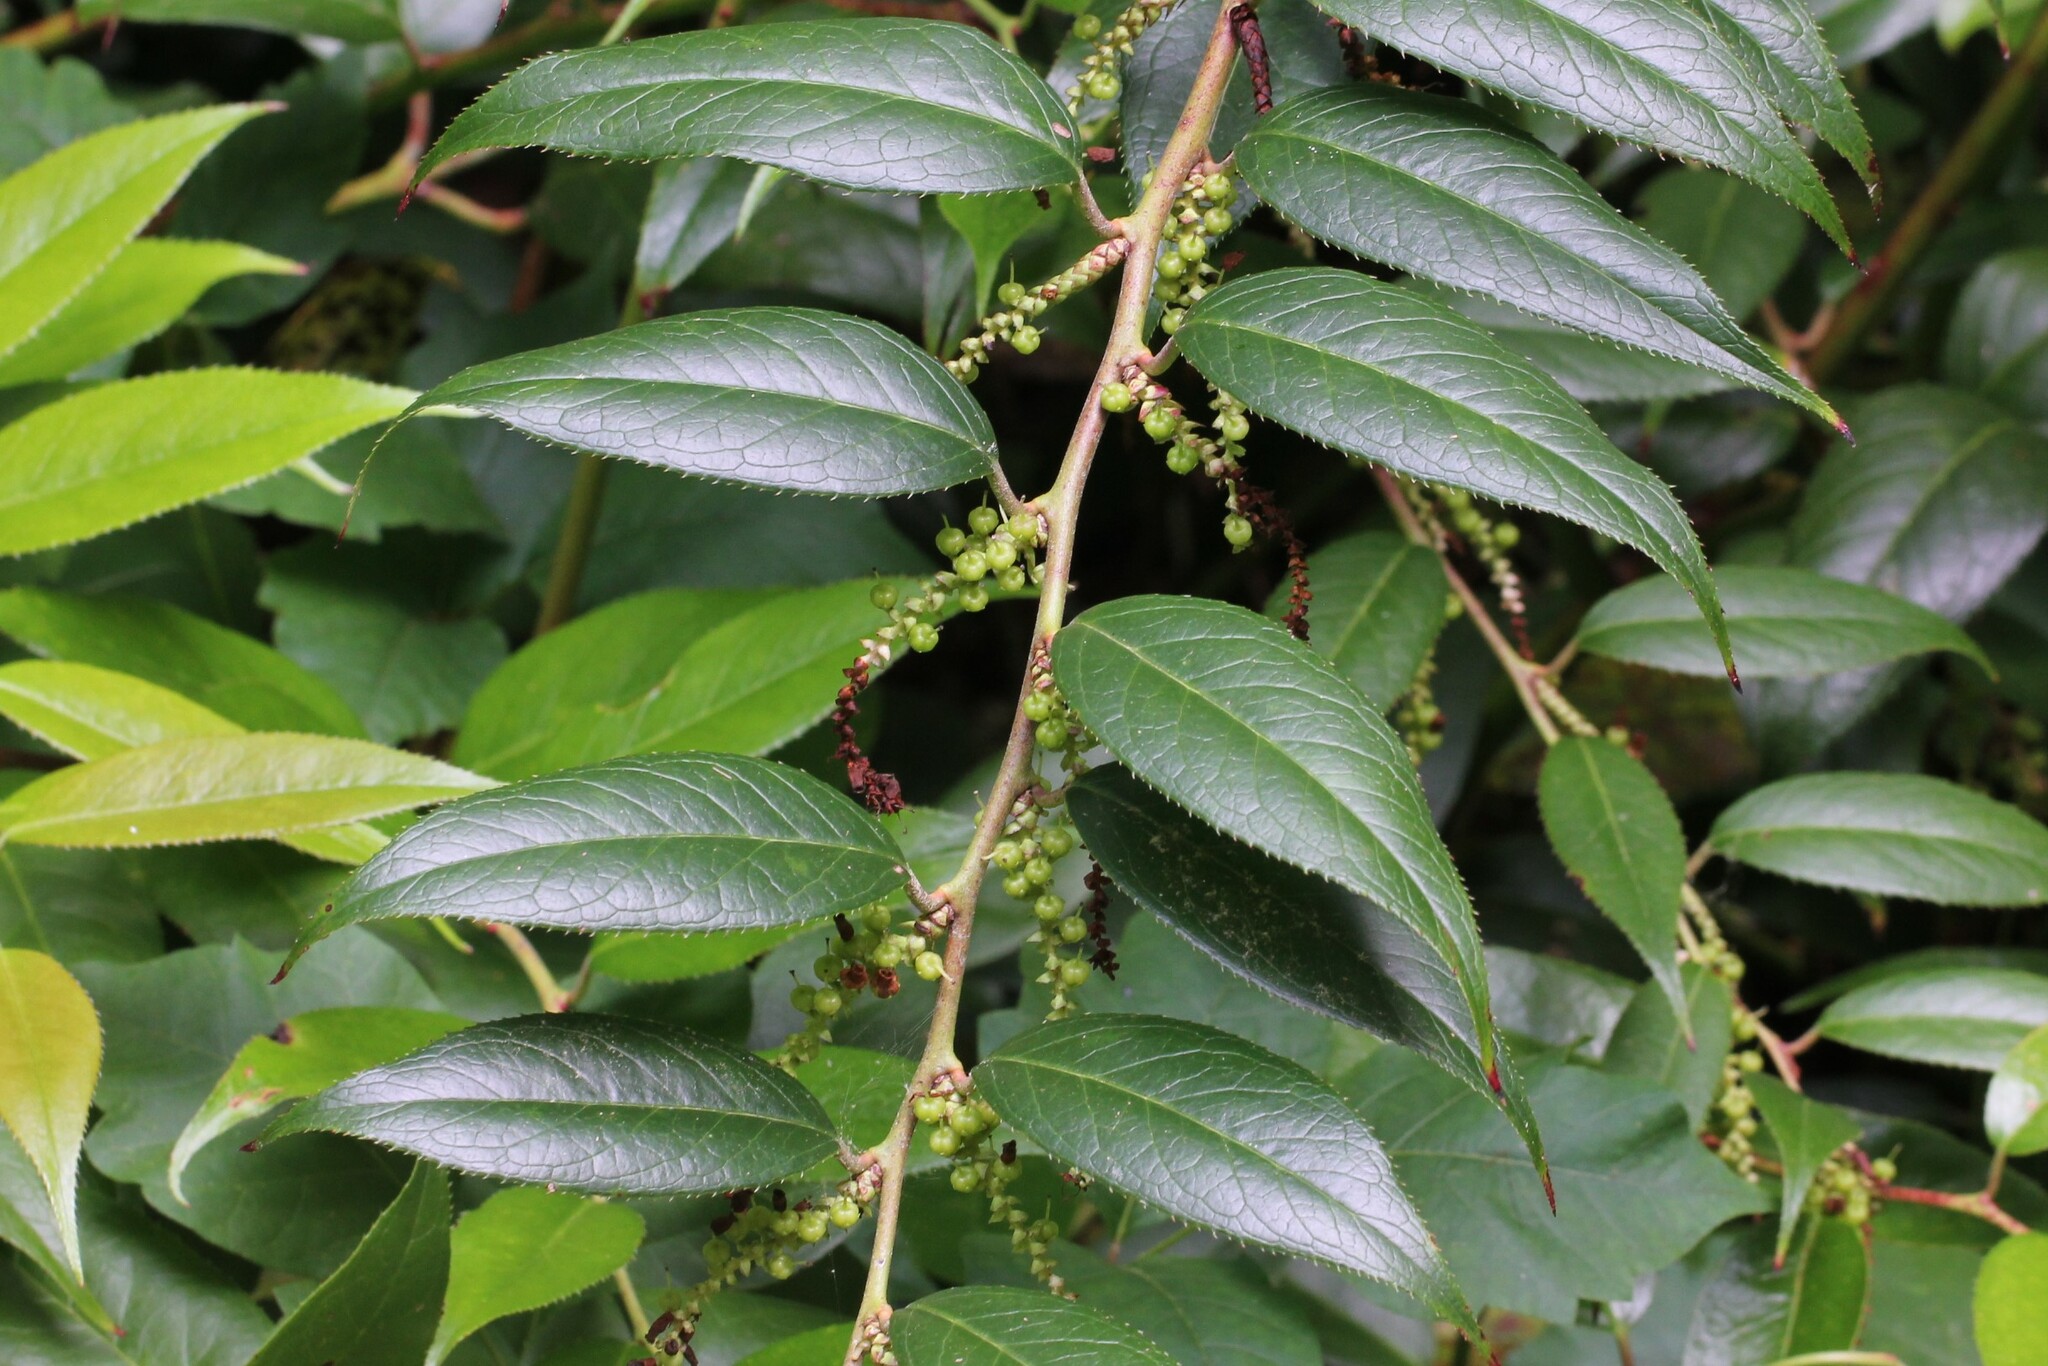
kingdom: Plantae
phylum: Tracheophyta
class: Magnoliopsida
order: Ericales
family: Ericaceae
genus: Leucothoe
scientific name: Leucothoe fontanesiana
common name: Fetterbush
